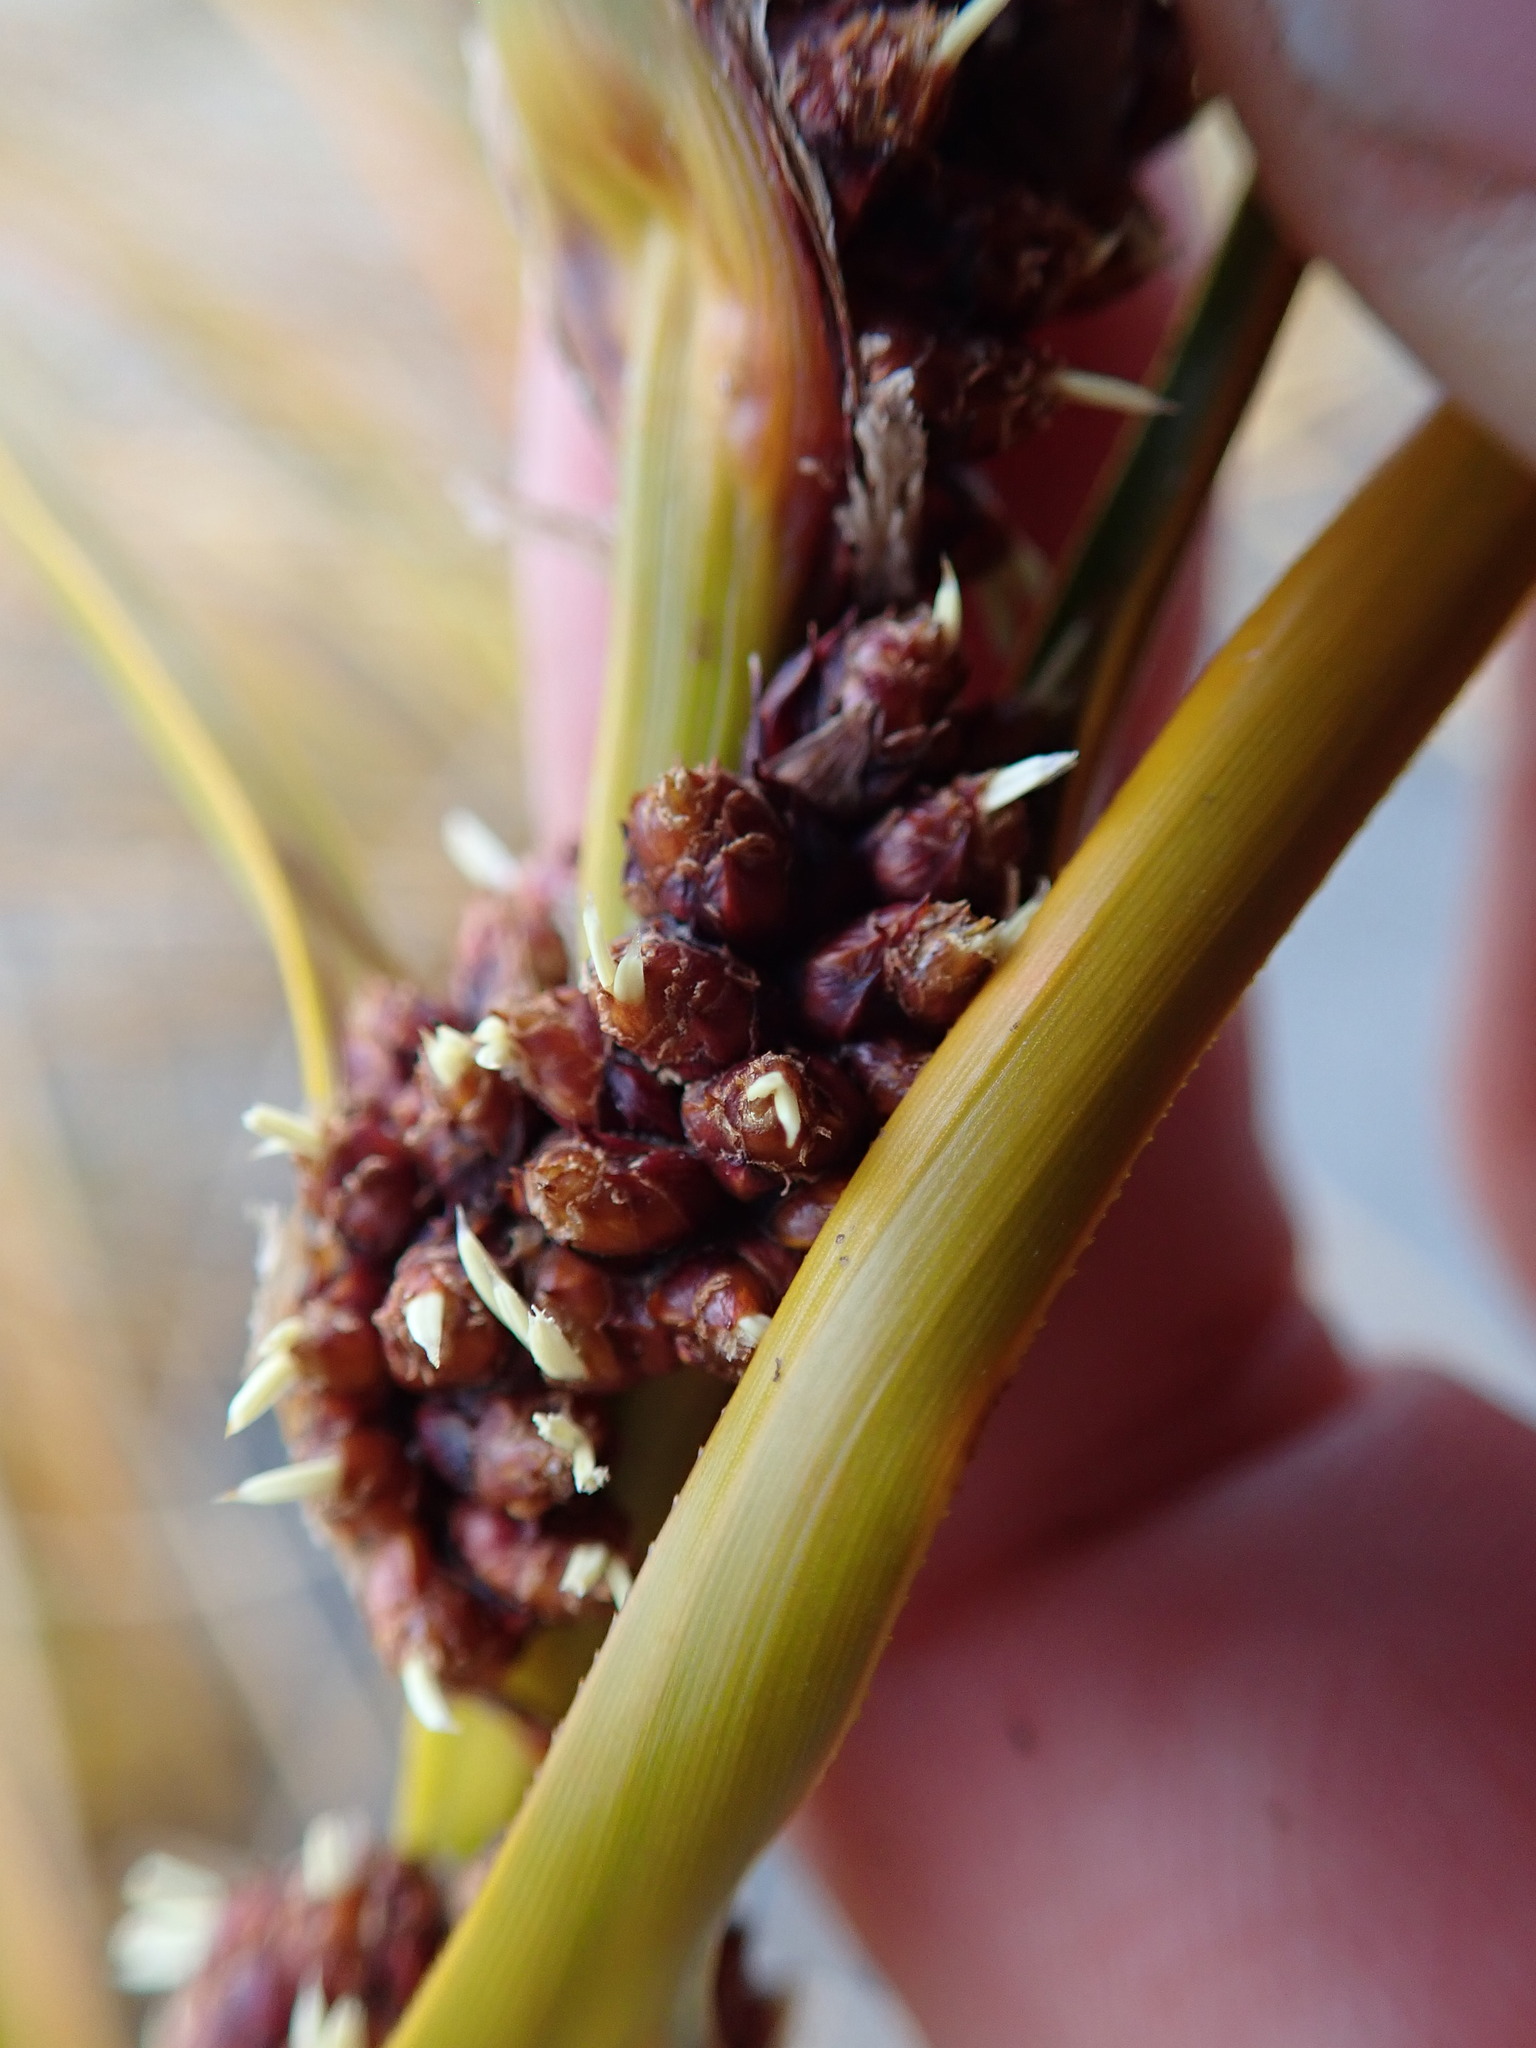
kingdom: Plantae
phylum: Tracheophyta
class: Liliopsida
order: Poales
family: Cyperaceae
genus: Ficinia
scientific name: Ficinia spiralis
